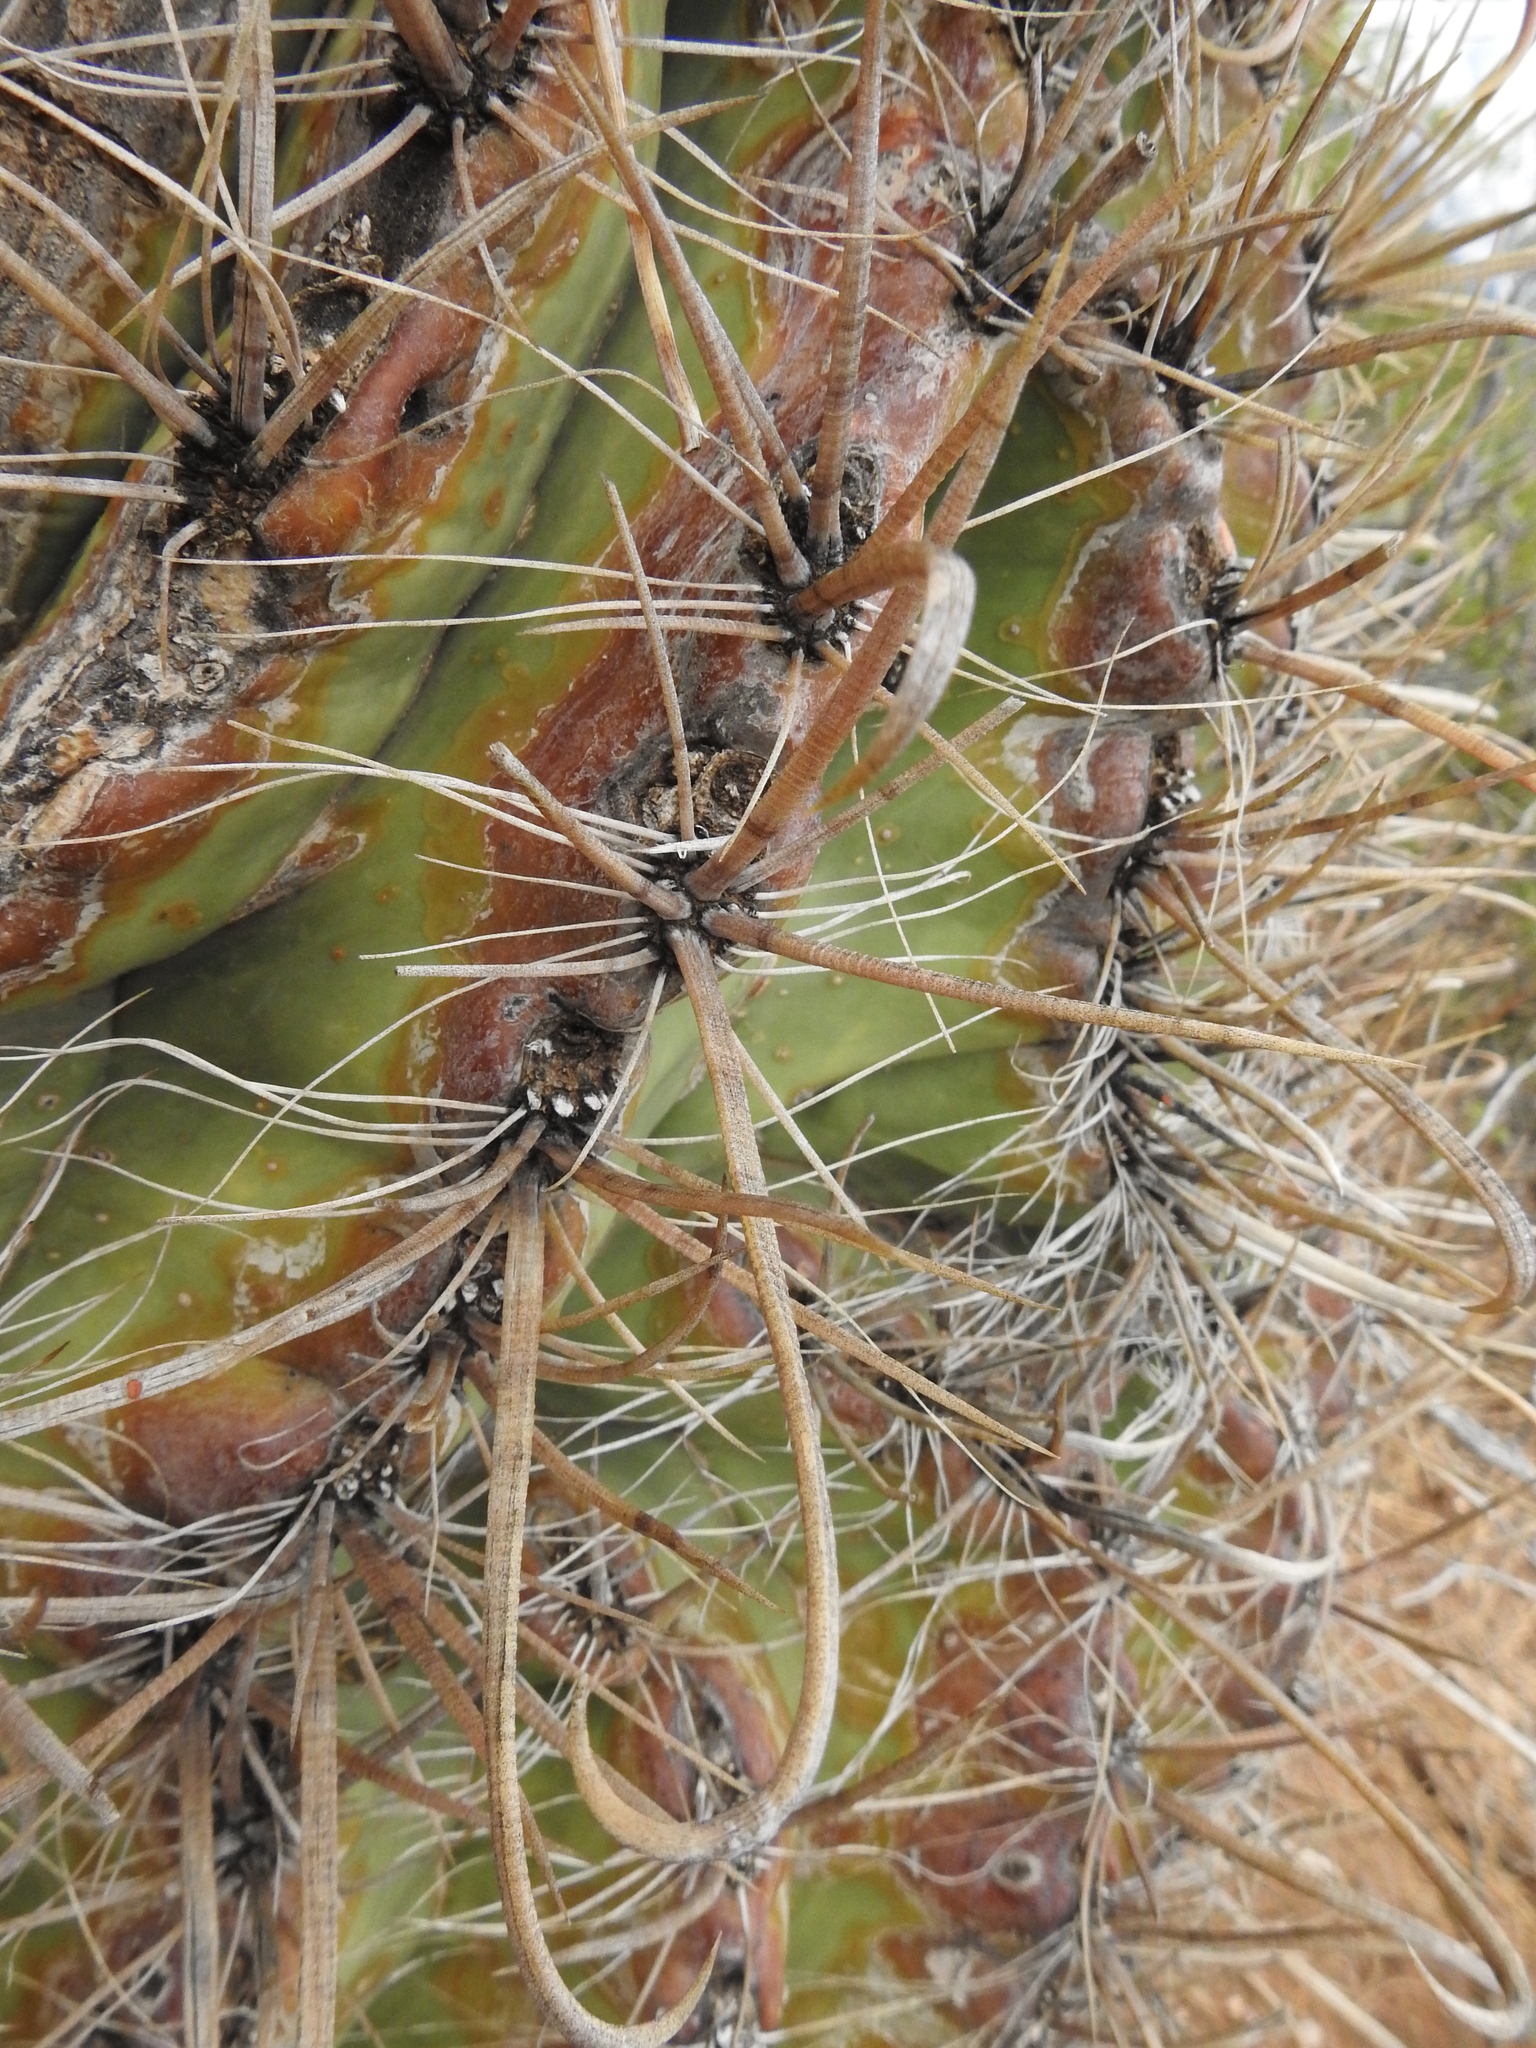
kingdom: Plantae
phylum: Tracheophyta
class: Magnoliopsida
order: Caryophyllales
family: Cactaceae
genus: Ferocactus
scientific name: Ferocactus wislizeni
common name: Candy barrel cactus
